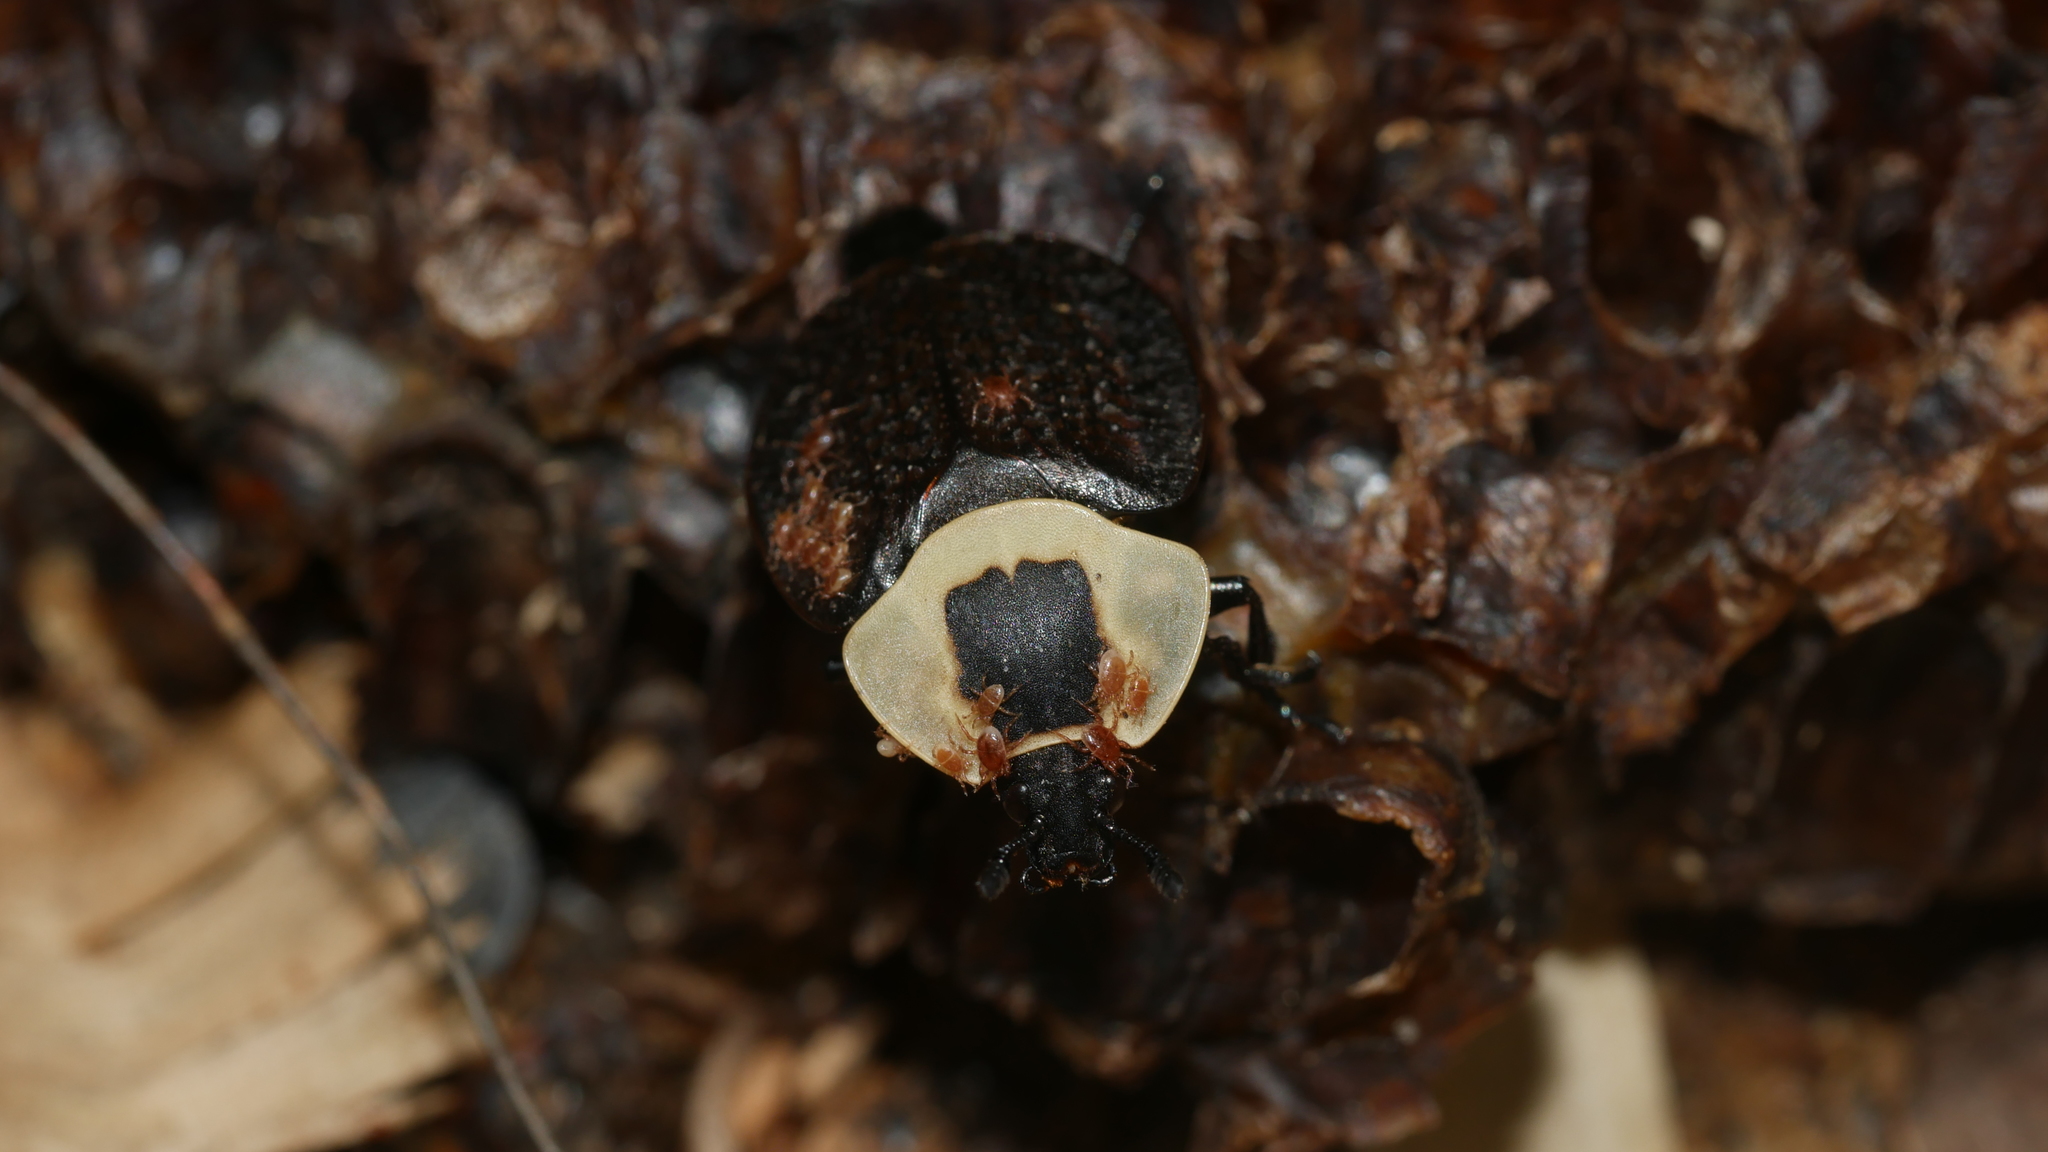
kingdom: Animalia
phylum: Arthropoda
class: Insecta
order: Coleoptera
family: Staphylinidae
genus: Necrophila
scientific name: Necrophila americana
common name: American carrion beetle
